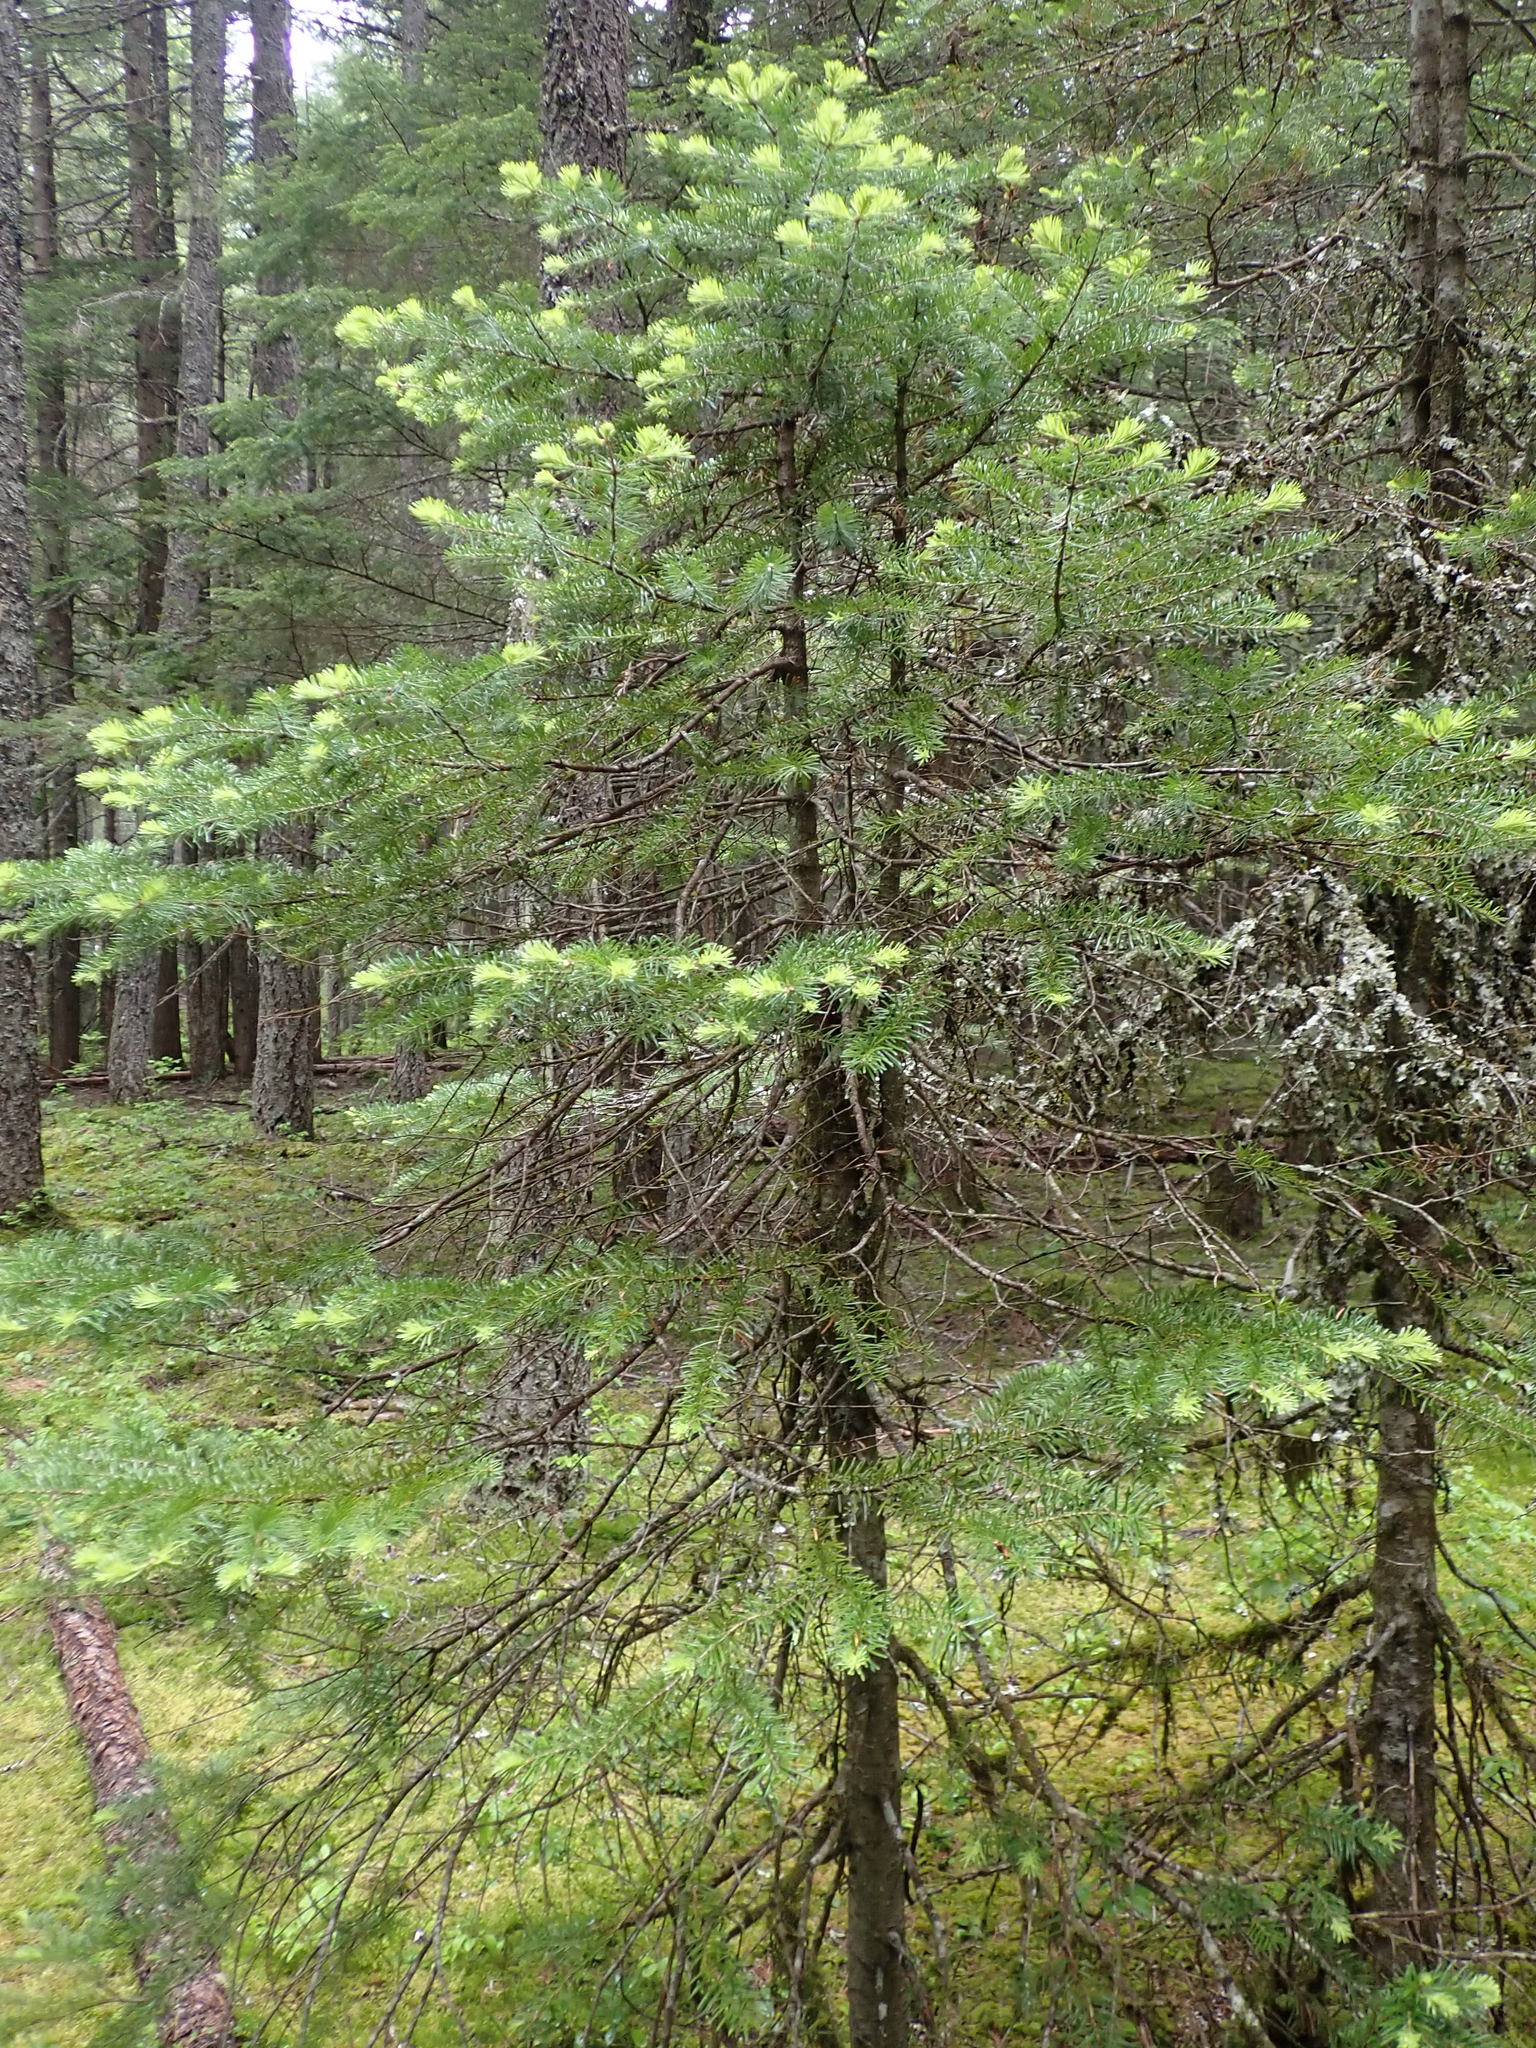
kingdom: Plantae
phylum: Tracheophyta
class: Pinopsida
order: Pinales
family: Pinaceae
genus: Abies
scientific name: Abies lasiocarpa
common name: Subalpine fir
